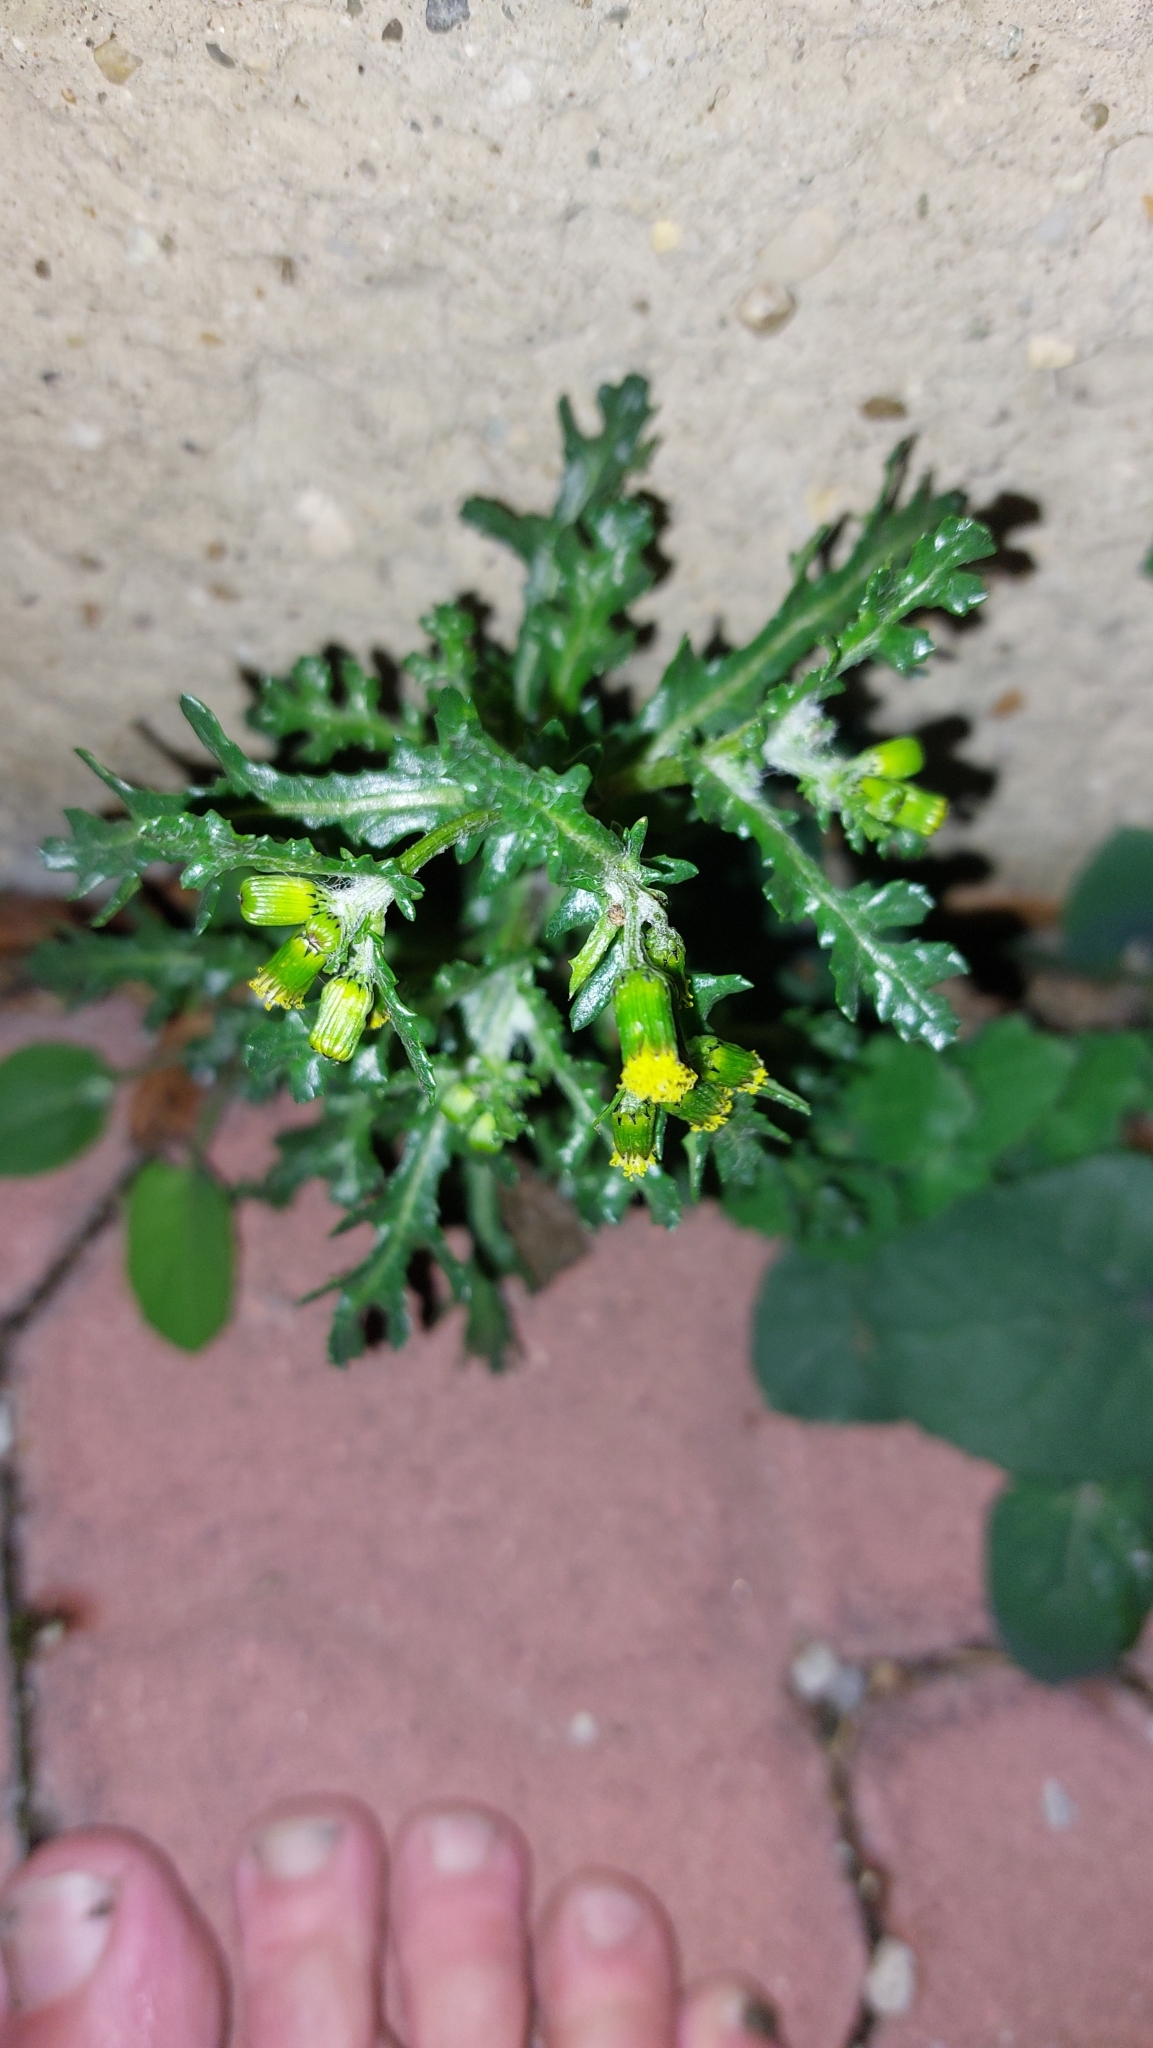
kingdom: Plantae
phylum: Tracheophyta
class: Magnoliopsida
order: Asterales
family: Asteraceae
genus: Senecio
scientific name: Senecio vulgaris
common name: Old-man-in-the-spring
